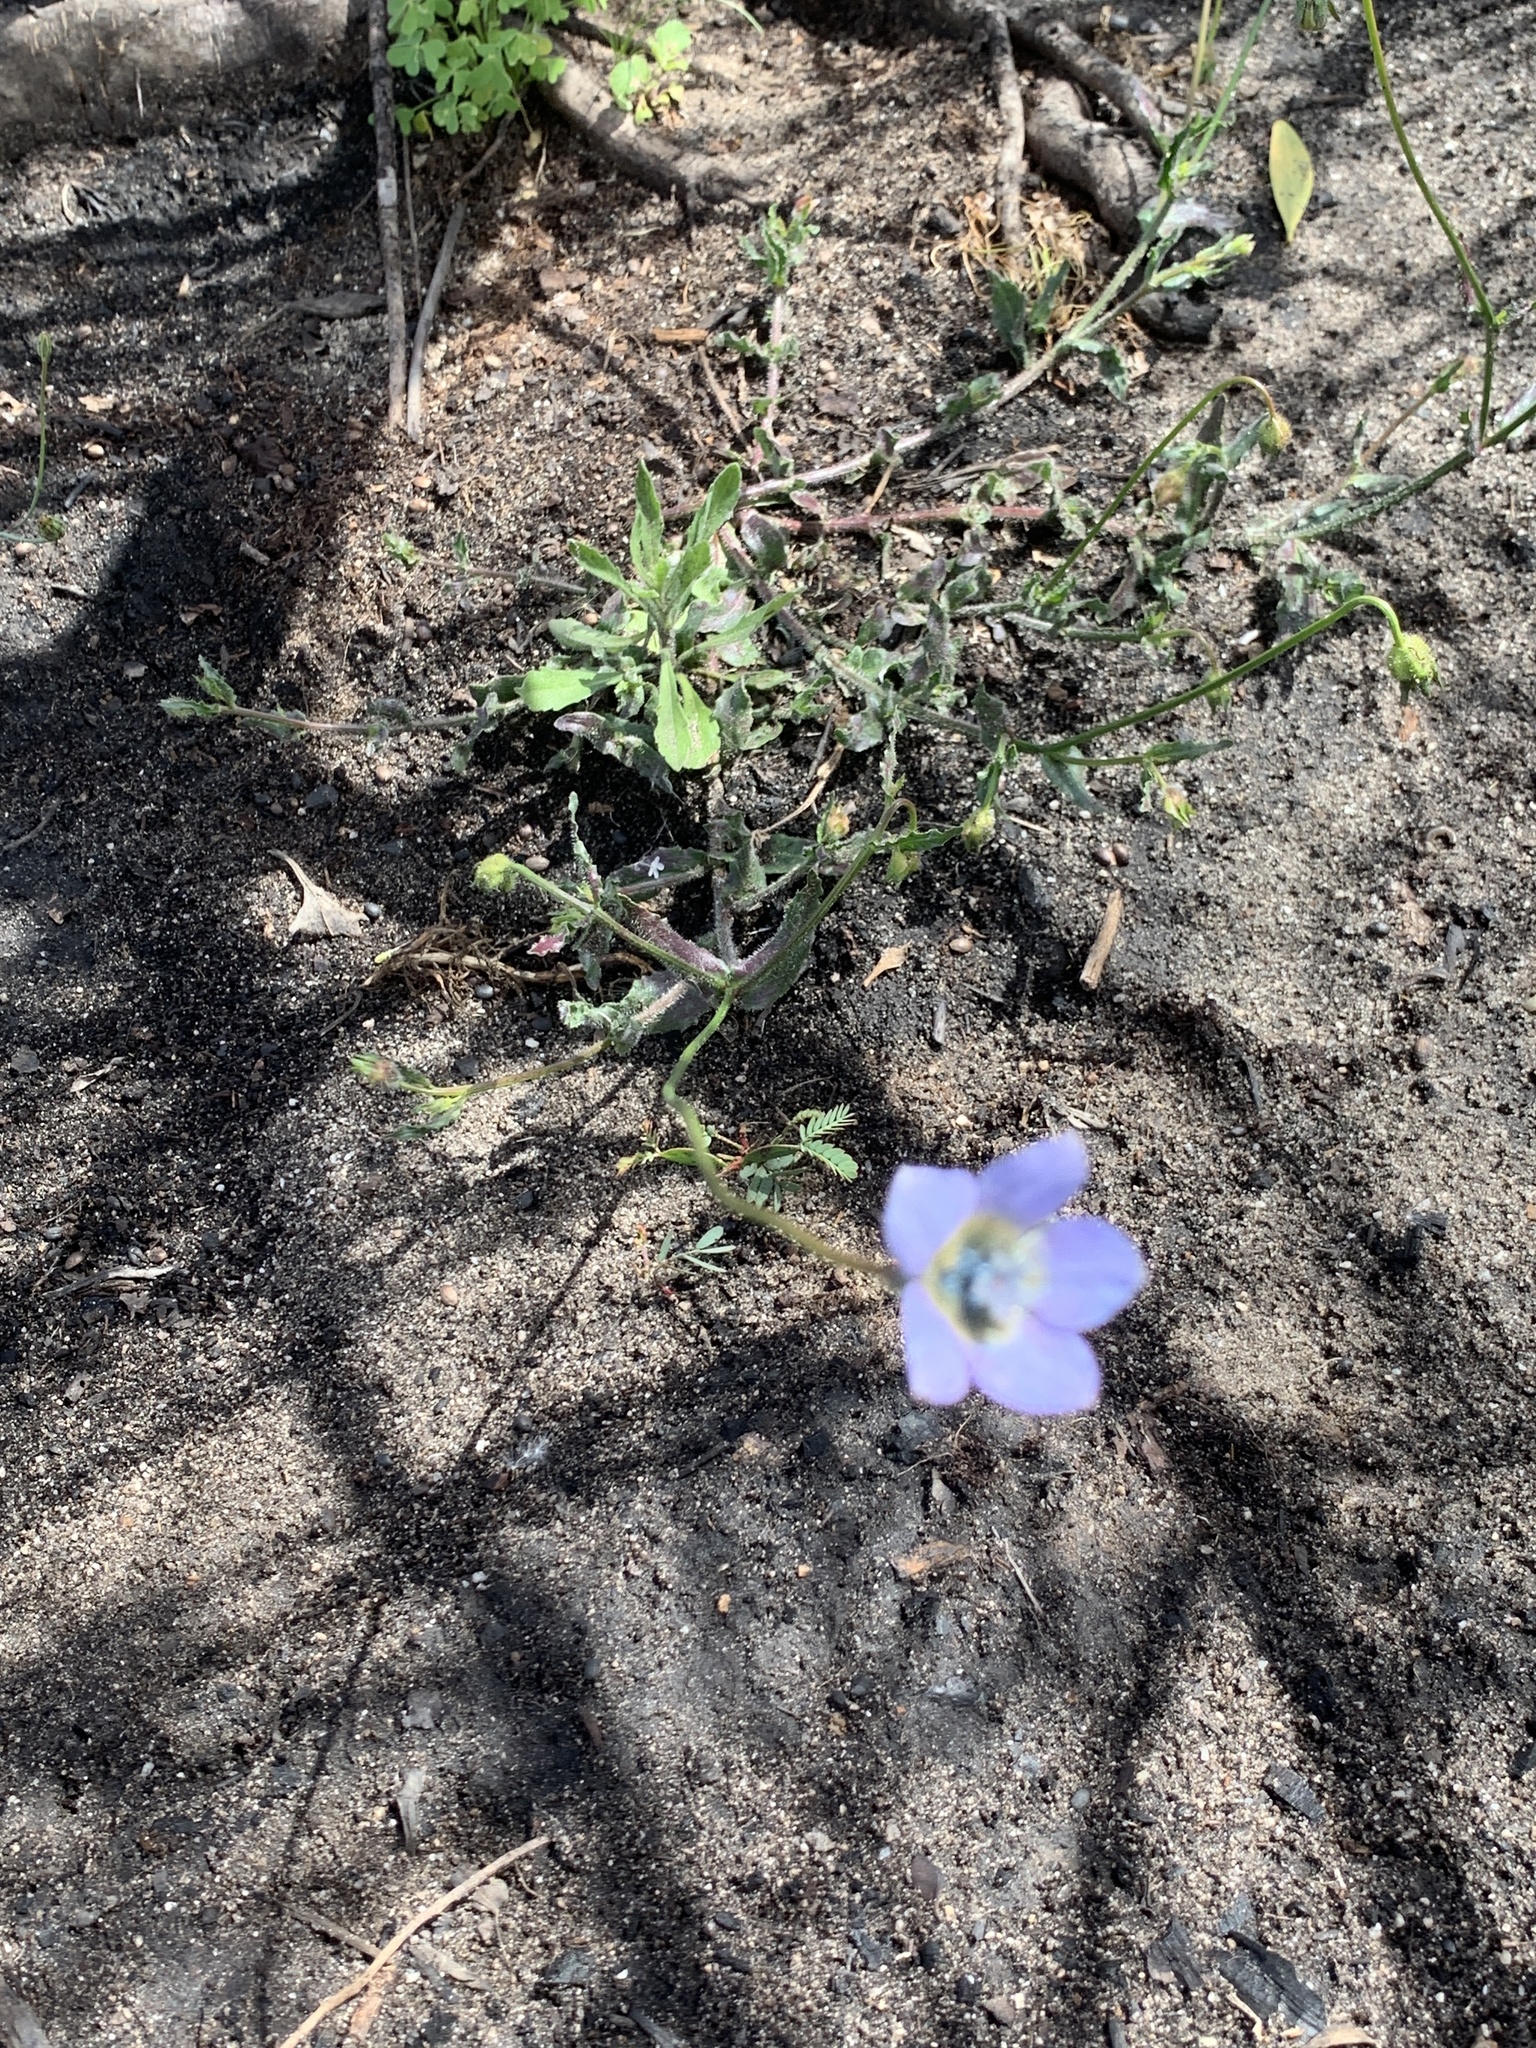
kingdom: Plantae
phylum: Tracheophyta
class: Magnoliopsida
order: Asterales
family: Campanulaceae
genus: Wahlenbergia
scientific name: Wahlenbergia capensis
